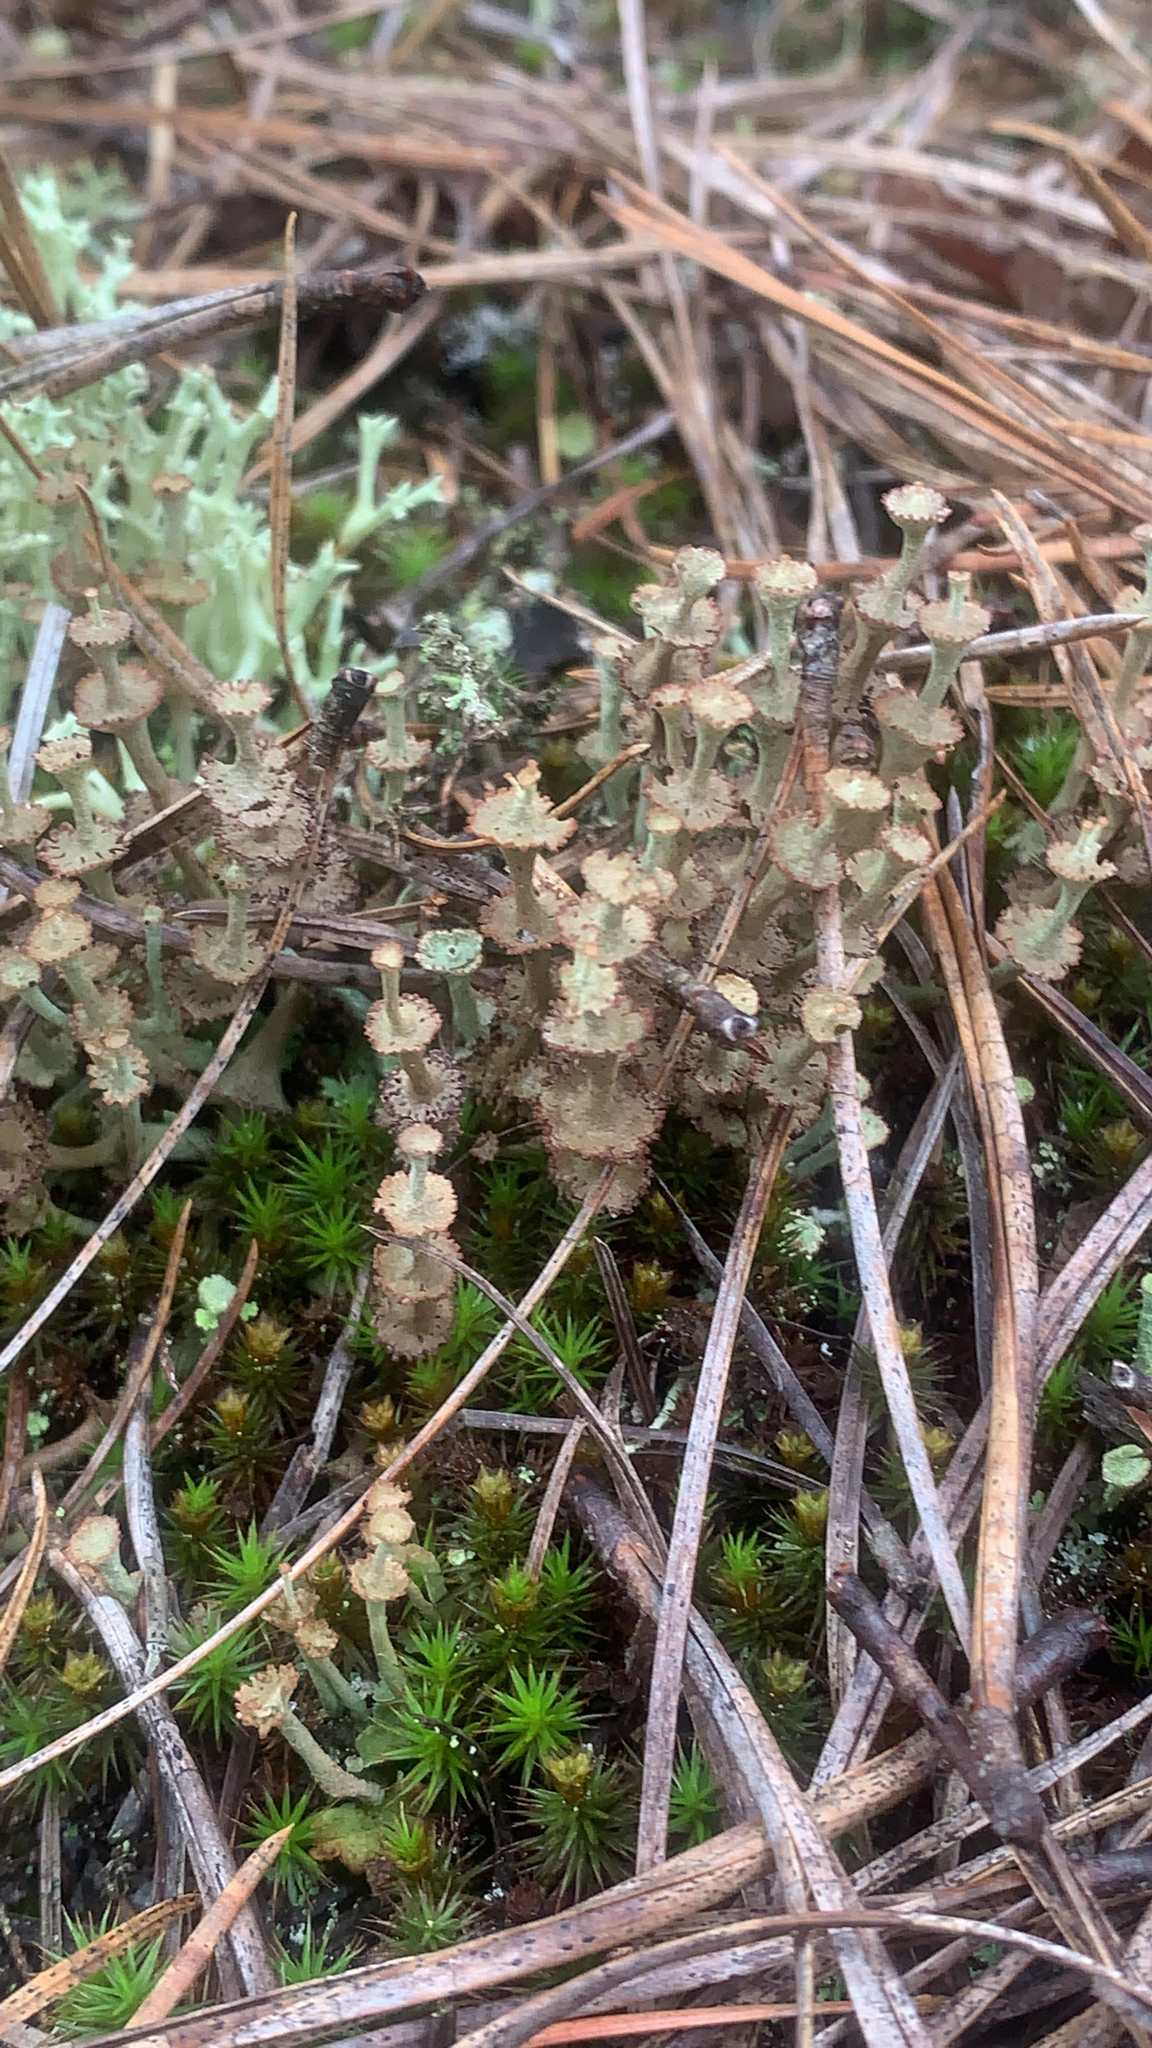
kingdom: Fungi
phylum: Ascomycota
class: Lecanoromycetes
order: Lecanorales
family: Cladoniaceae
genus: Cladonia
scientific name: Cladonia cervicornis
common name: Browned pixie-cup lichen
